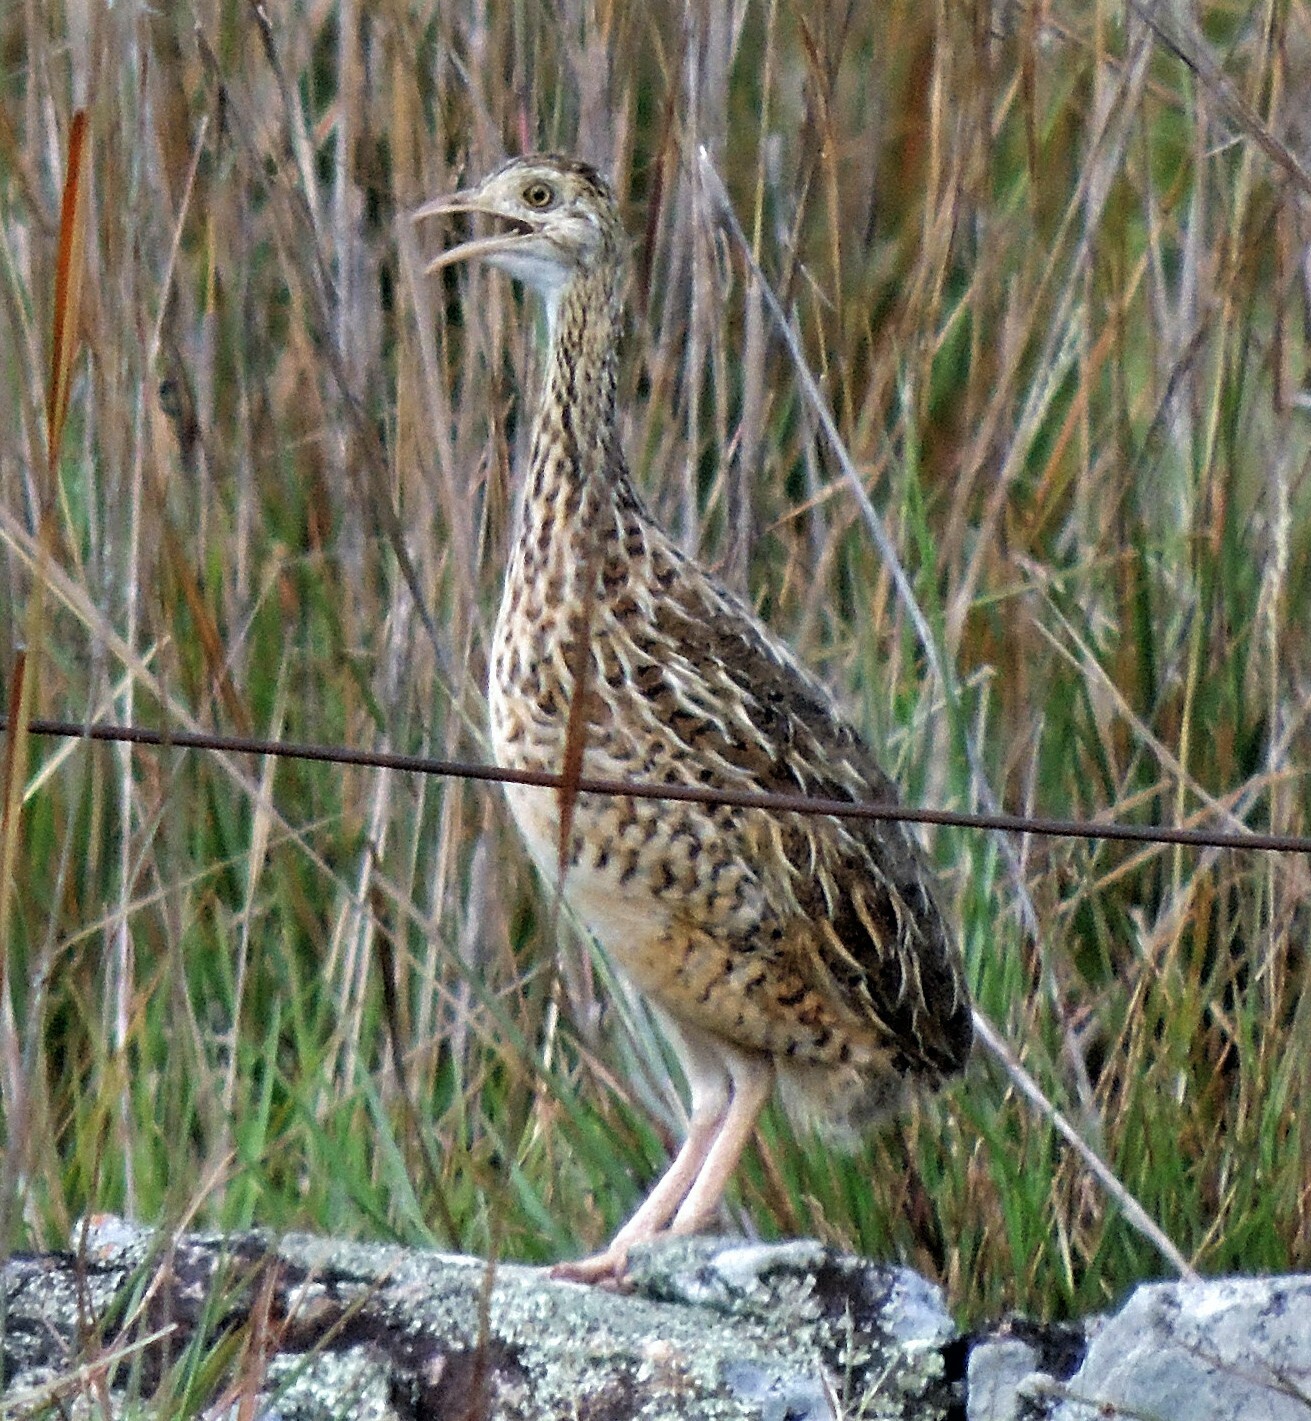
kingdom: Animalia
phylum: Chordata
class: Aves
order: Tinamiformes
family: Tinamidae
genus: Nothura
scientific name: Nothura maculosa
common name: Spotted nothura
